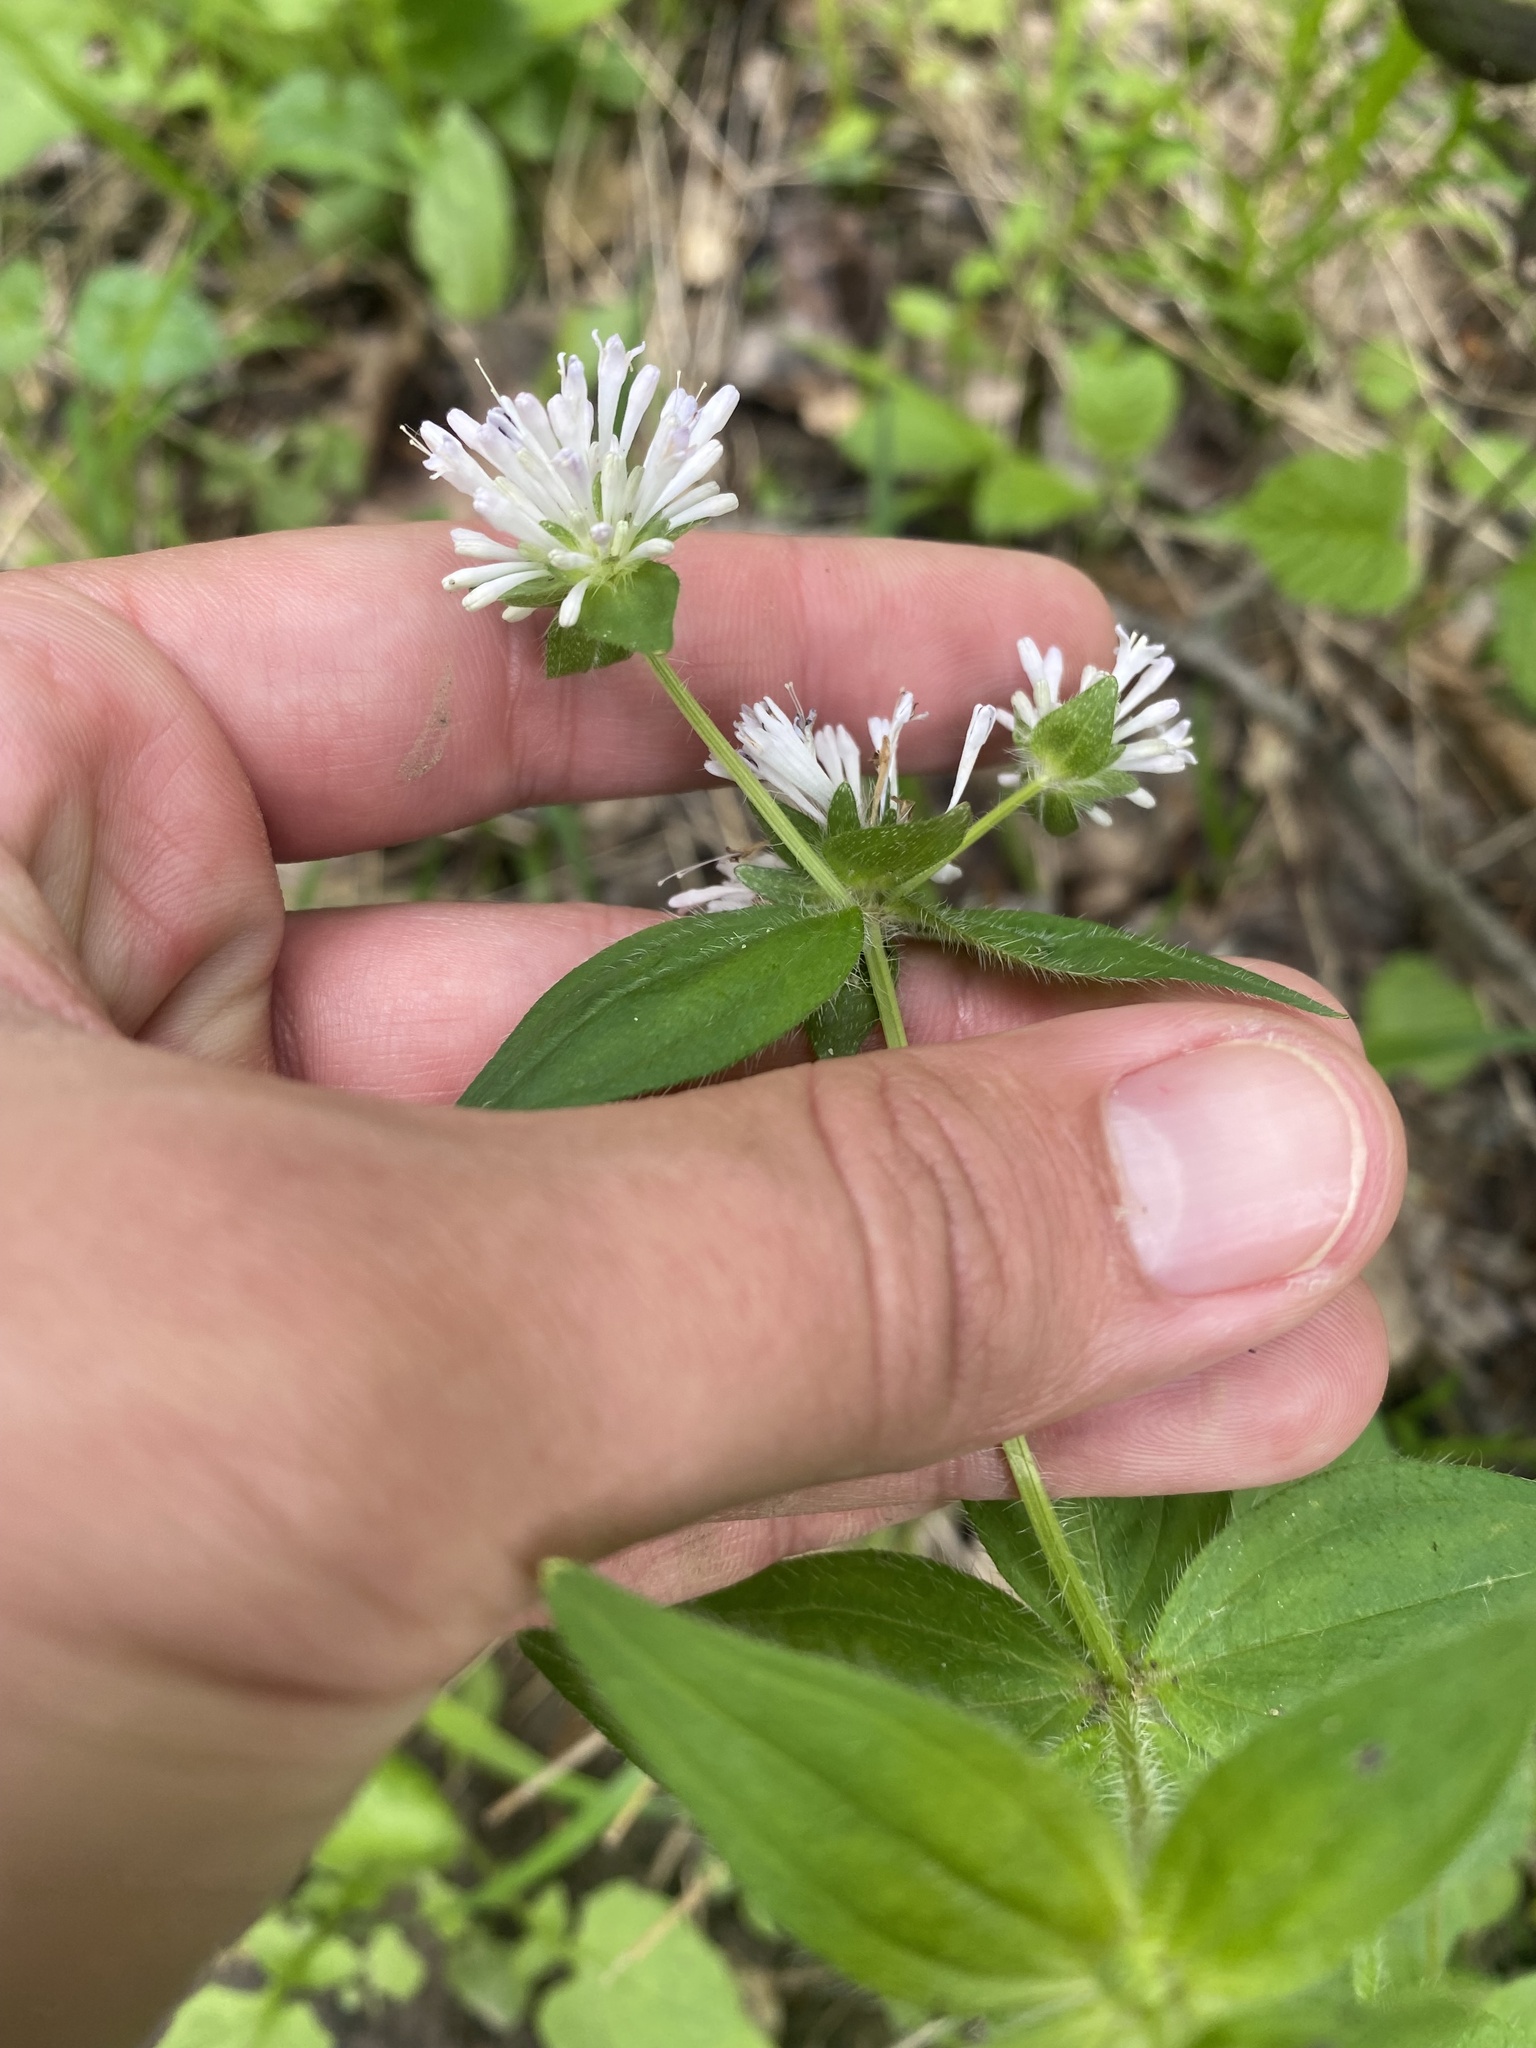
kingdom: Plantae
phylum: Tracheophyta
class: Magnoliopsida
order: Gentianales
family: Rubiaceae
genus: Asperula
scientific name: Asperula taurina
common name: Pink woodruff
